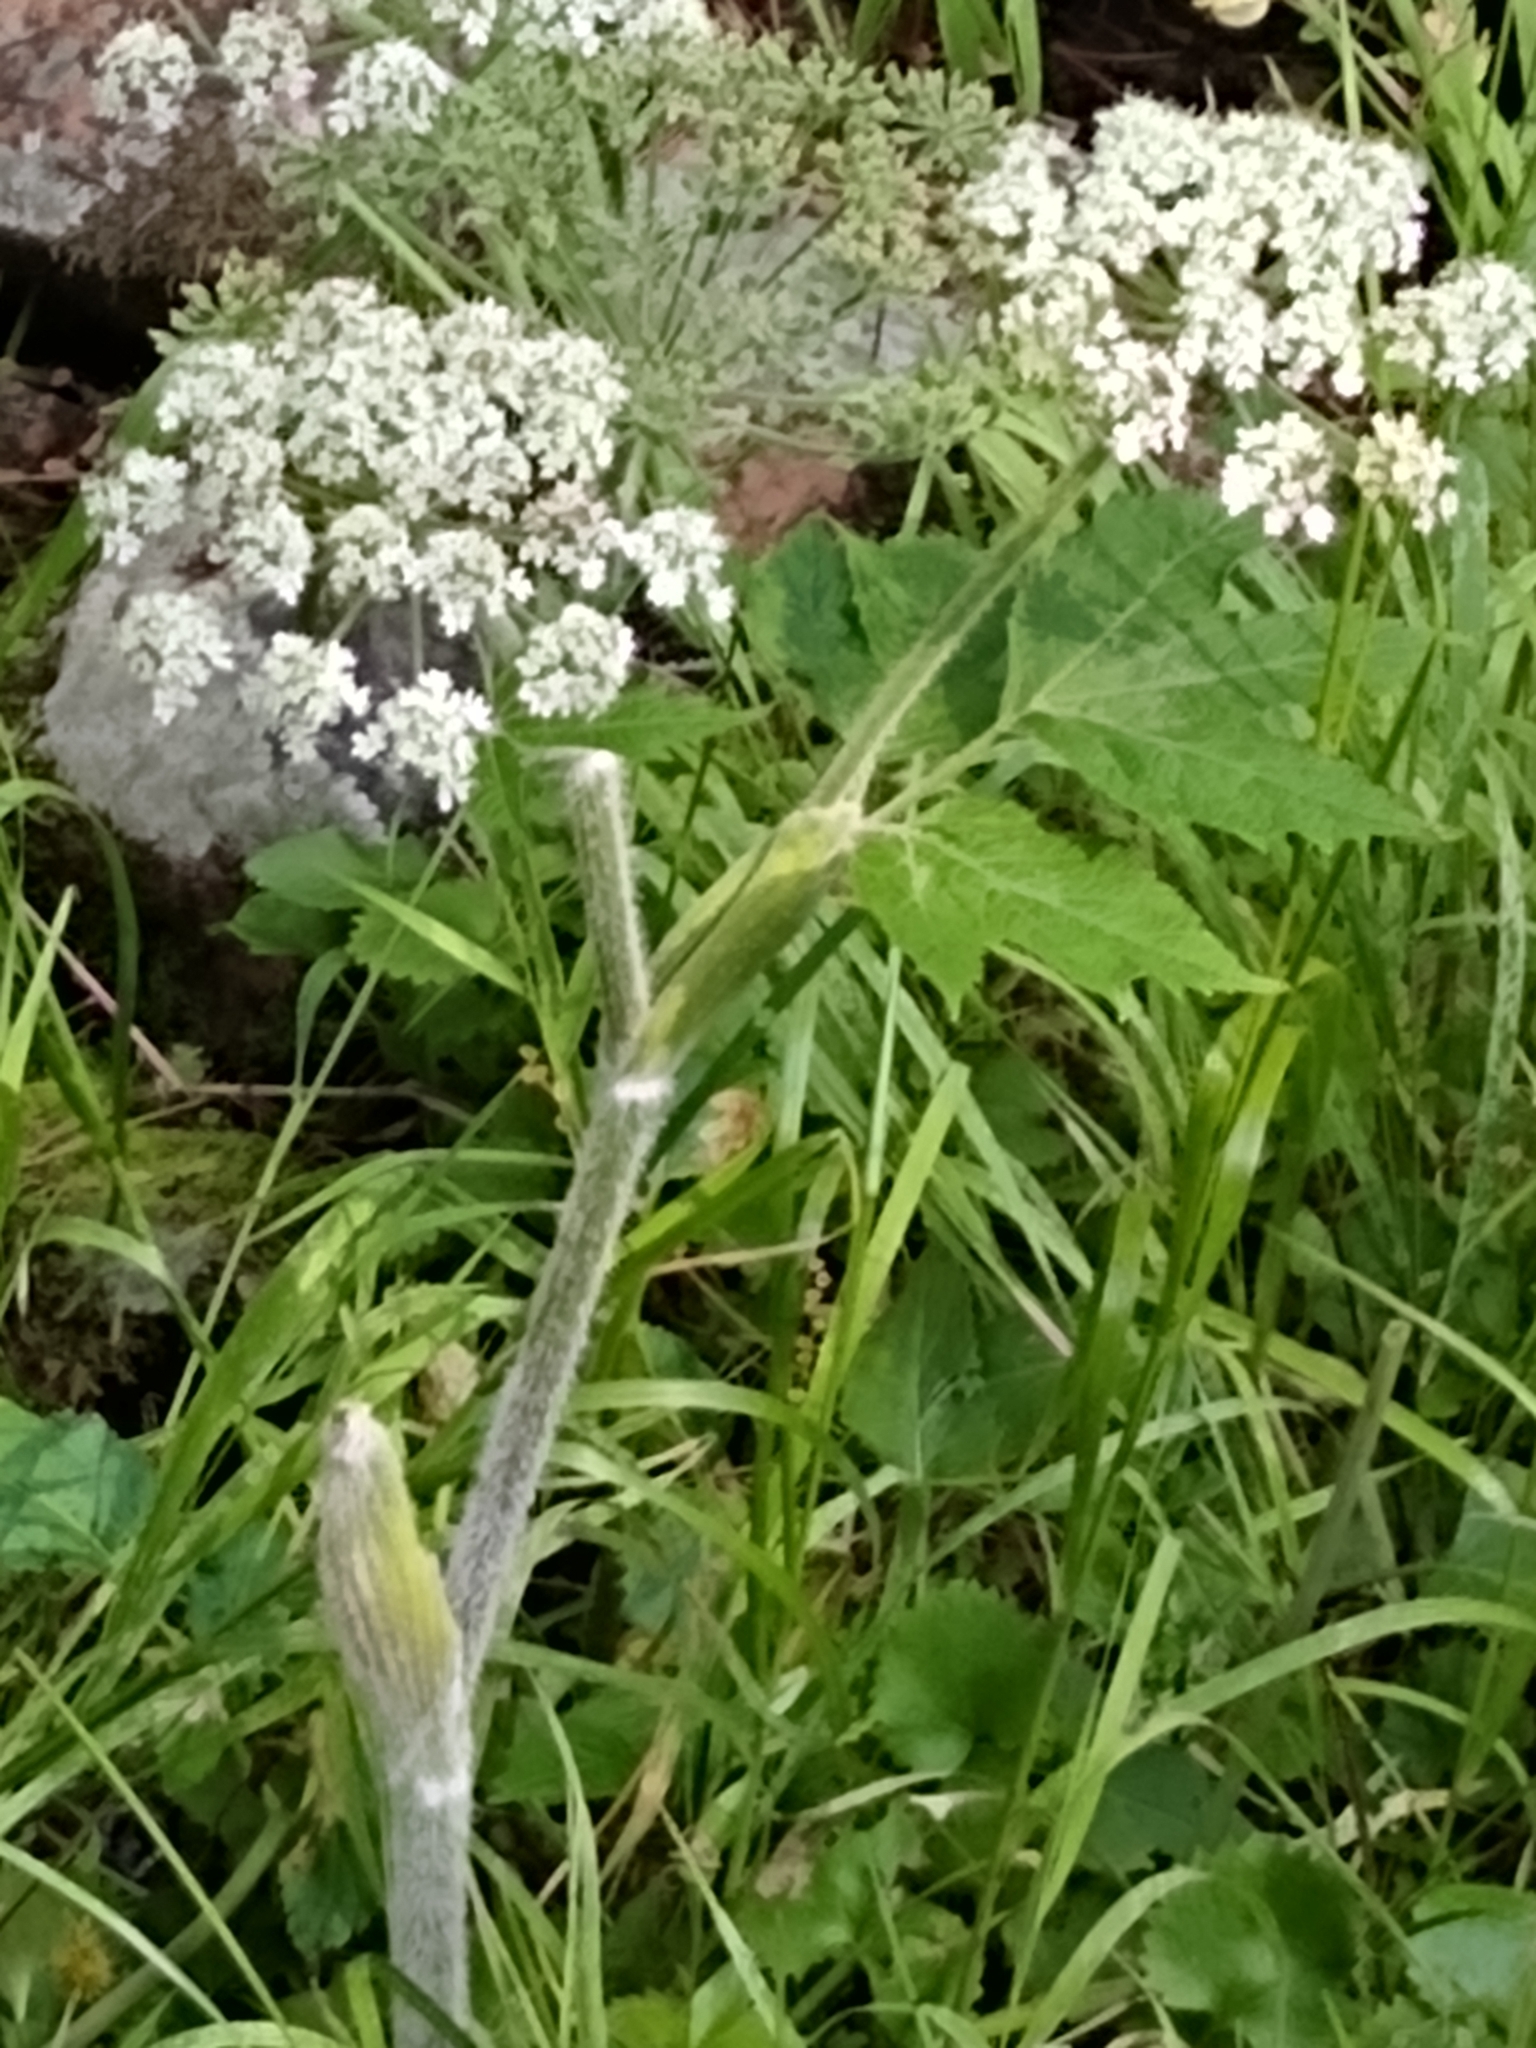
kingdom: Plantae
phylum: Tracheophyta
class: Magnoliopsida
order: Apiales
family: Apiaceae
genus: Heracleum
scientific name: Heracleum maximum
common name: American cow parsnip
